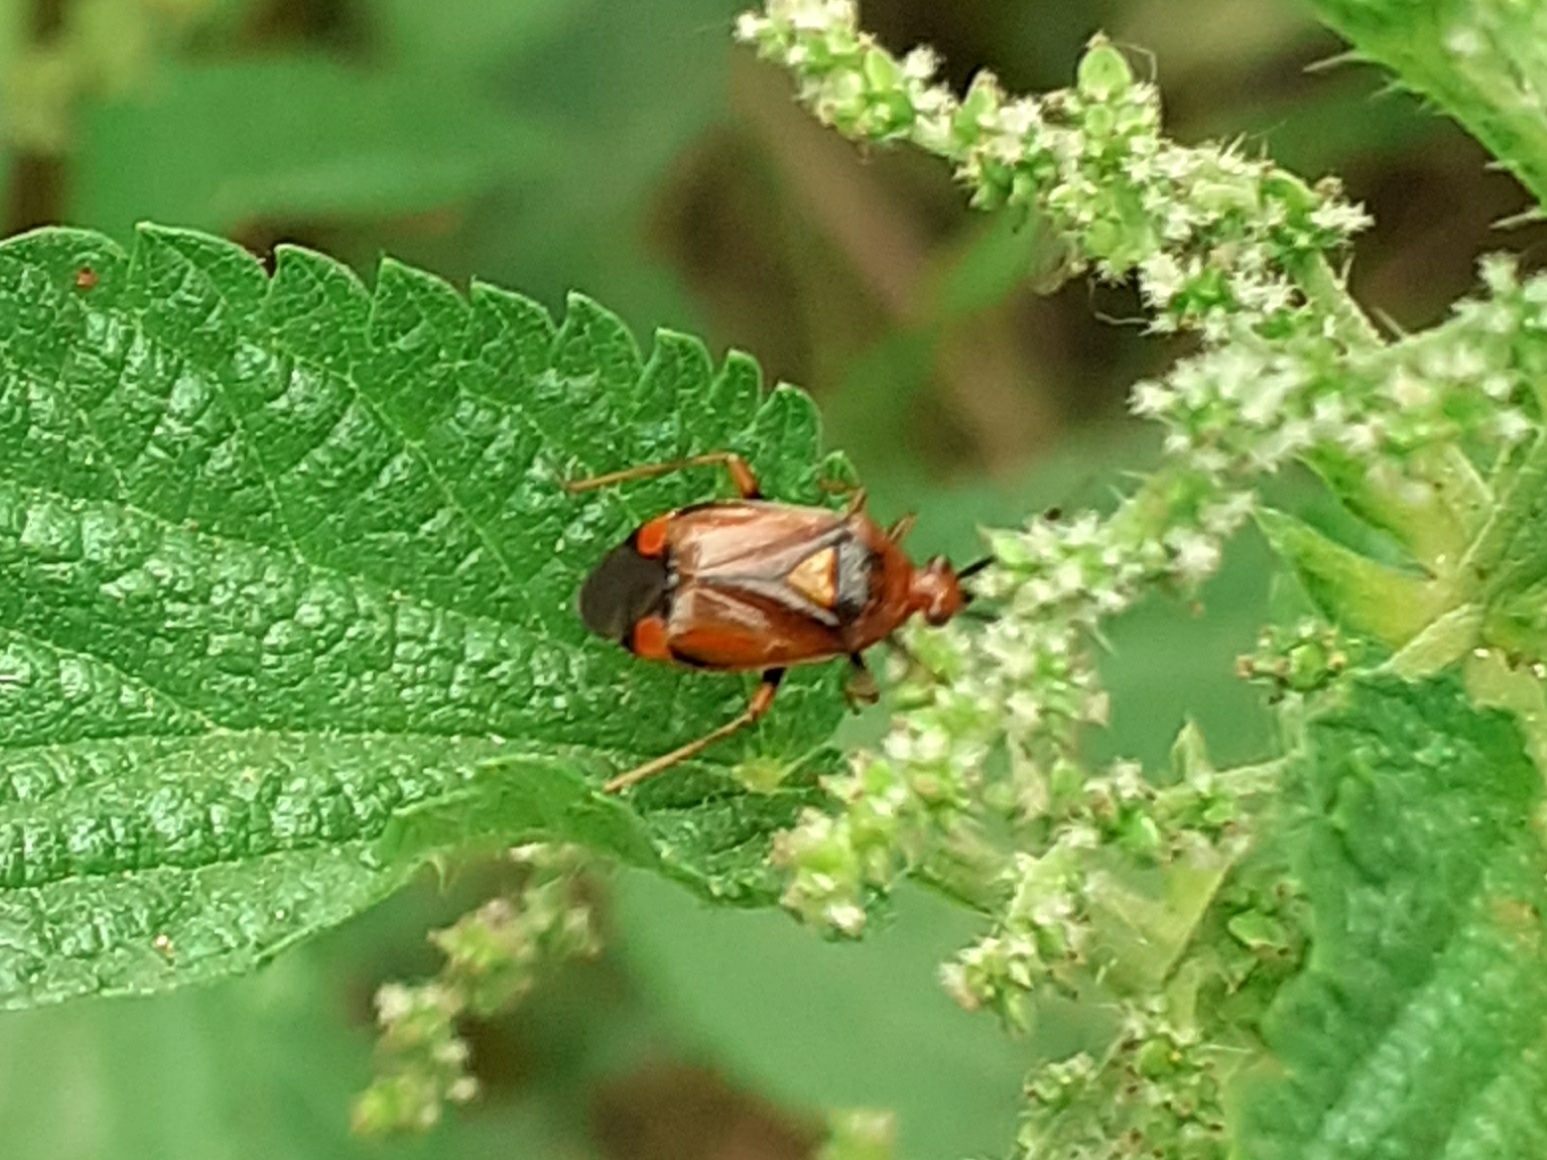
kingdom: Animalia
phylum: Arthropoda
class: Insecta
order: Hemiptera
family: Miridae
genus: Deraeocoris
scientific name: Deraeocoris ruber
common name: Plant bug
